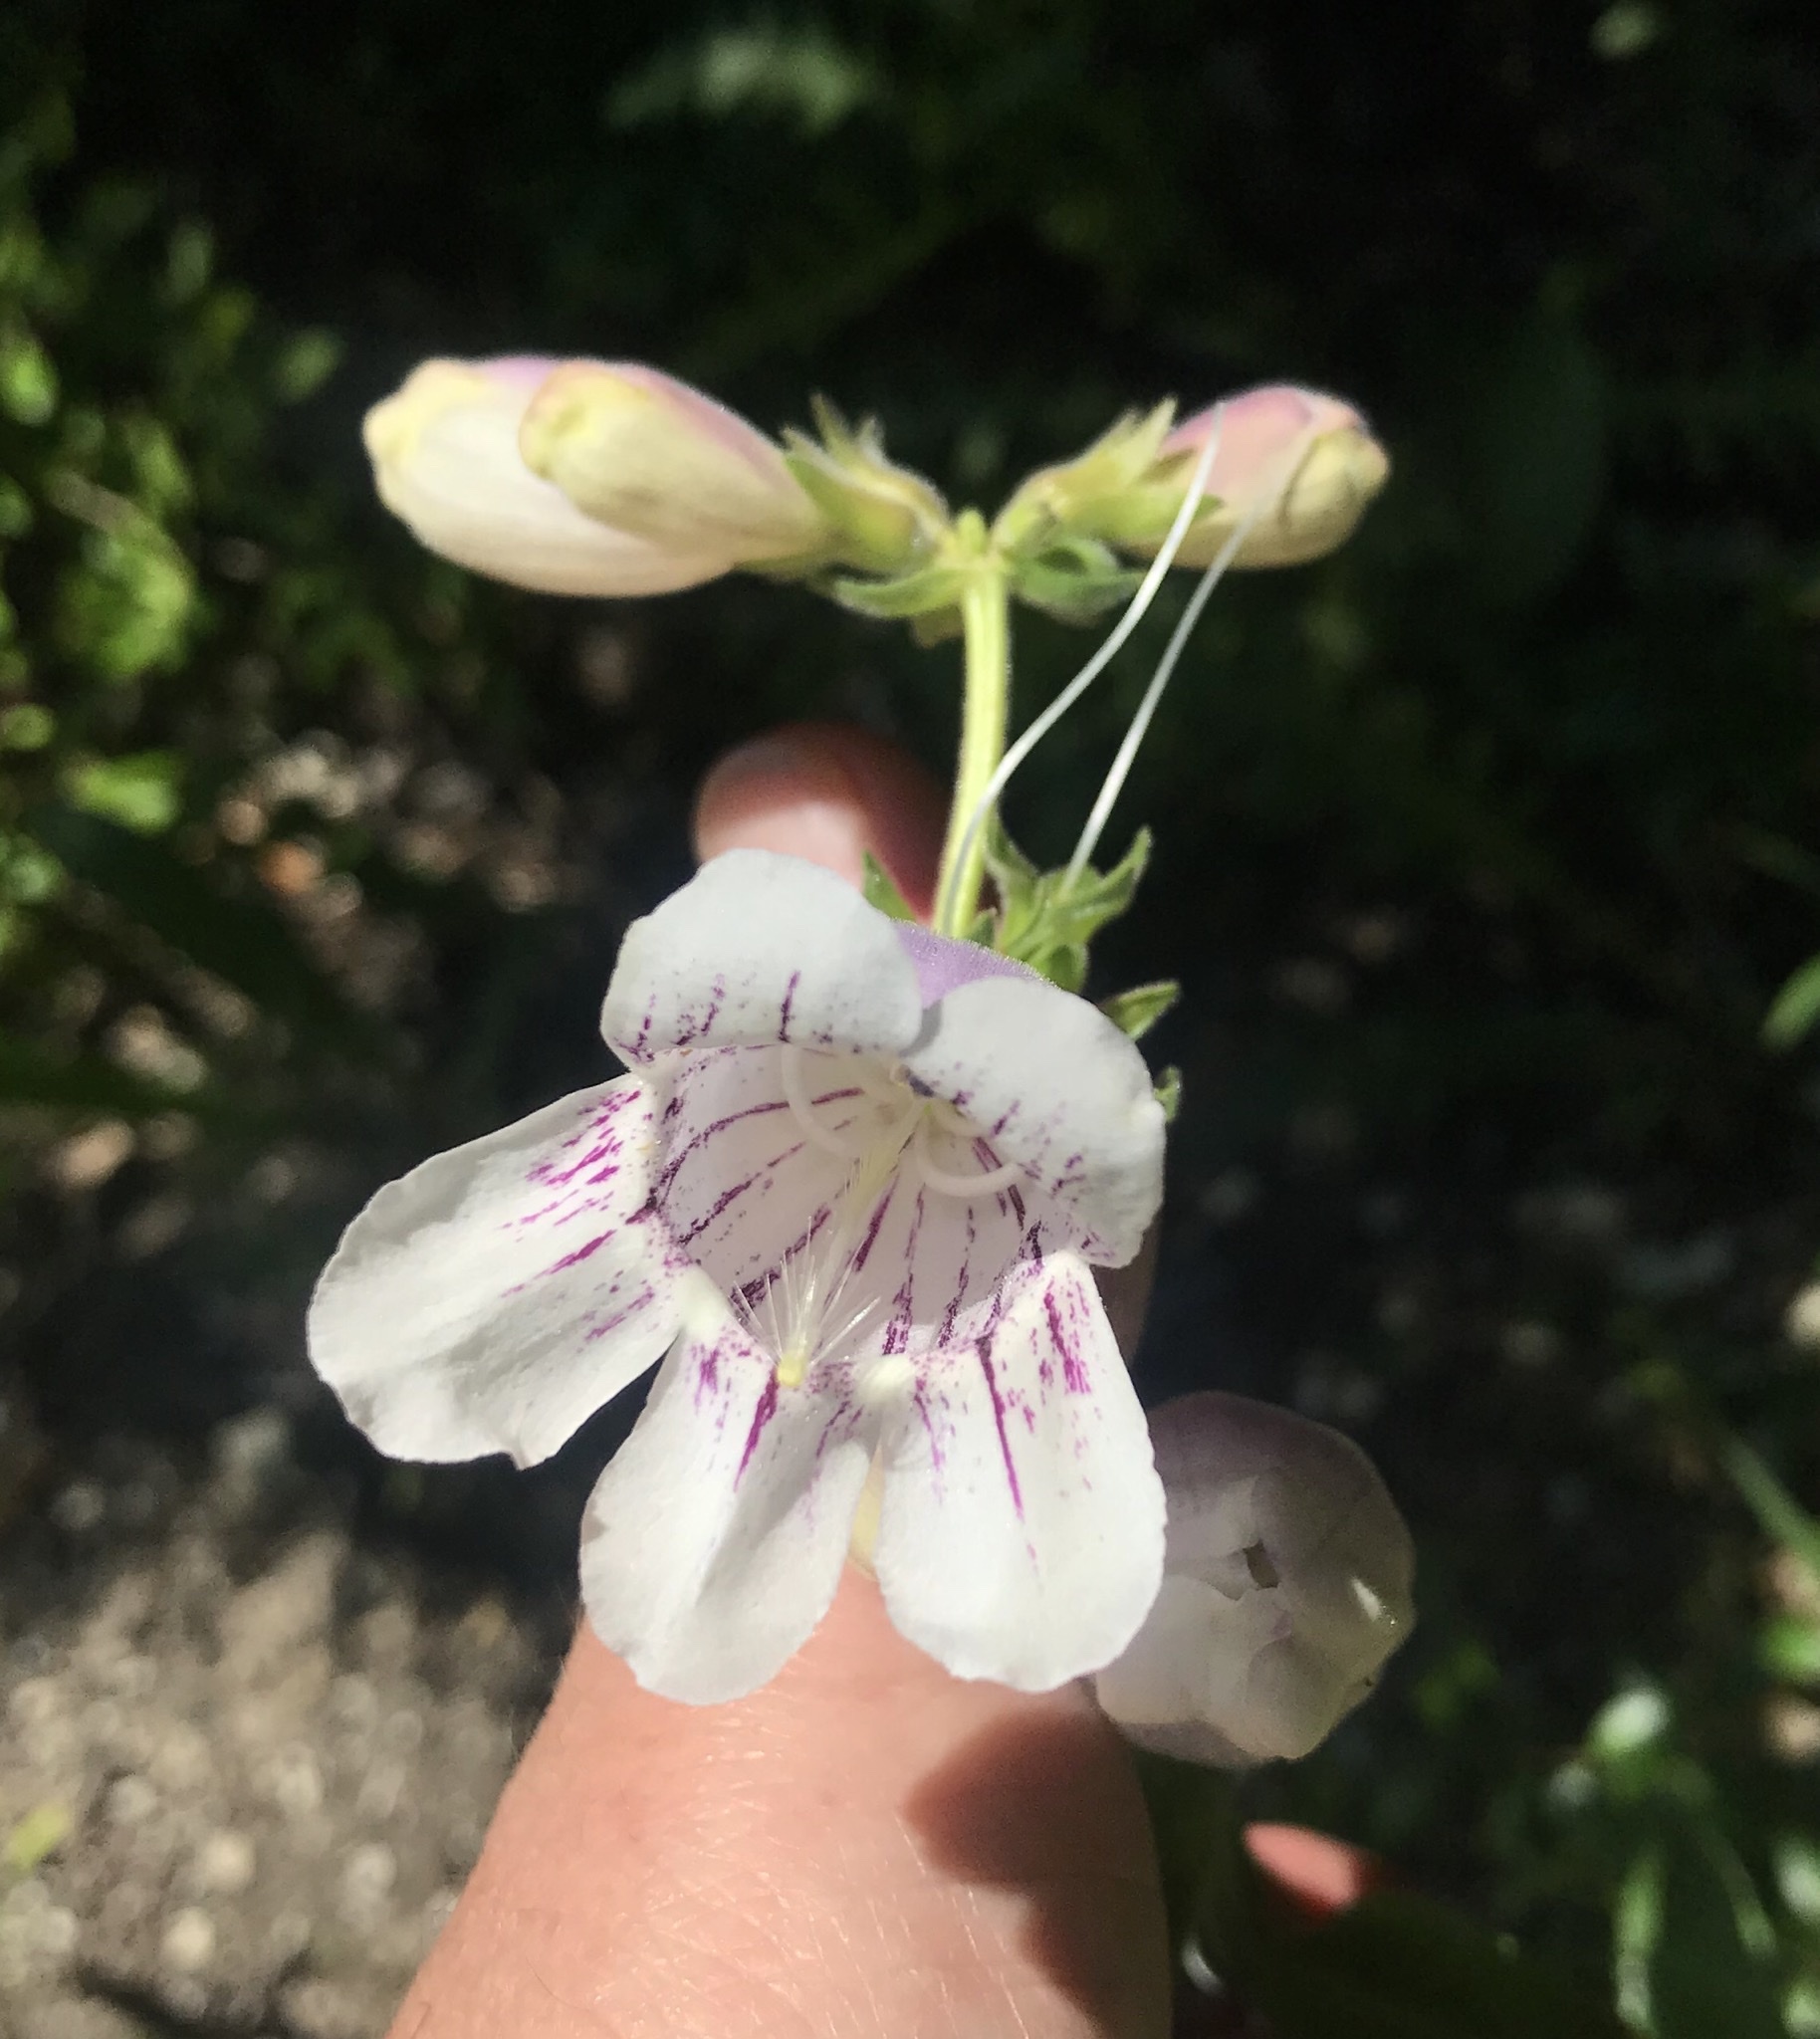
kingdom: Plantae
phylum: Tracheophyta
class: Magnoliopsida
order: Lamiales
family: Plantaginaceae
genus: Penstemon
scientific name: Penstemon cobaea
